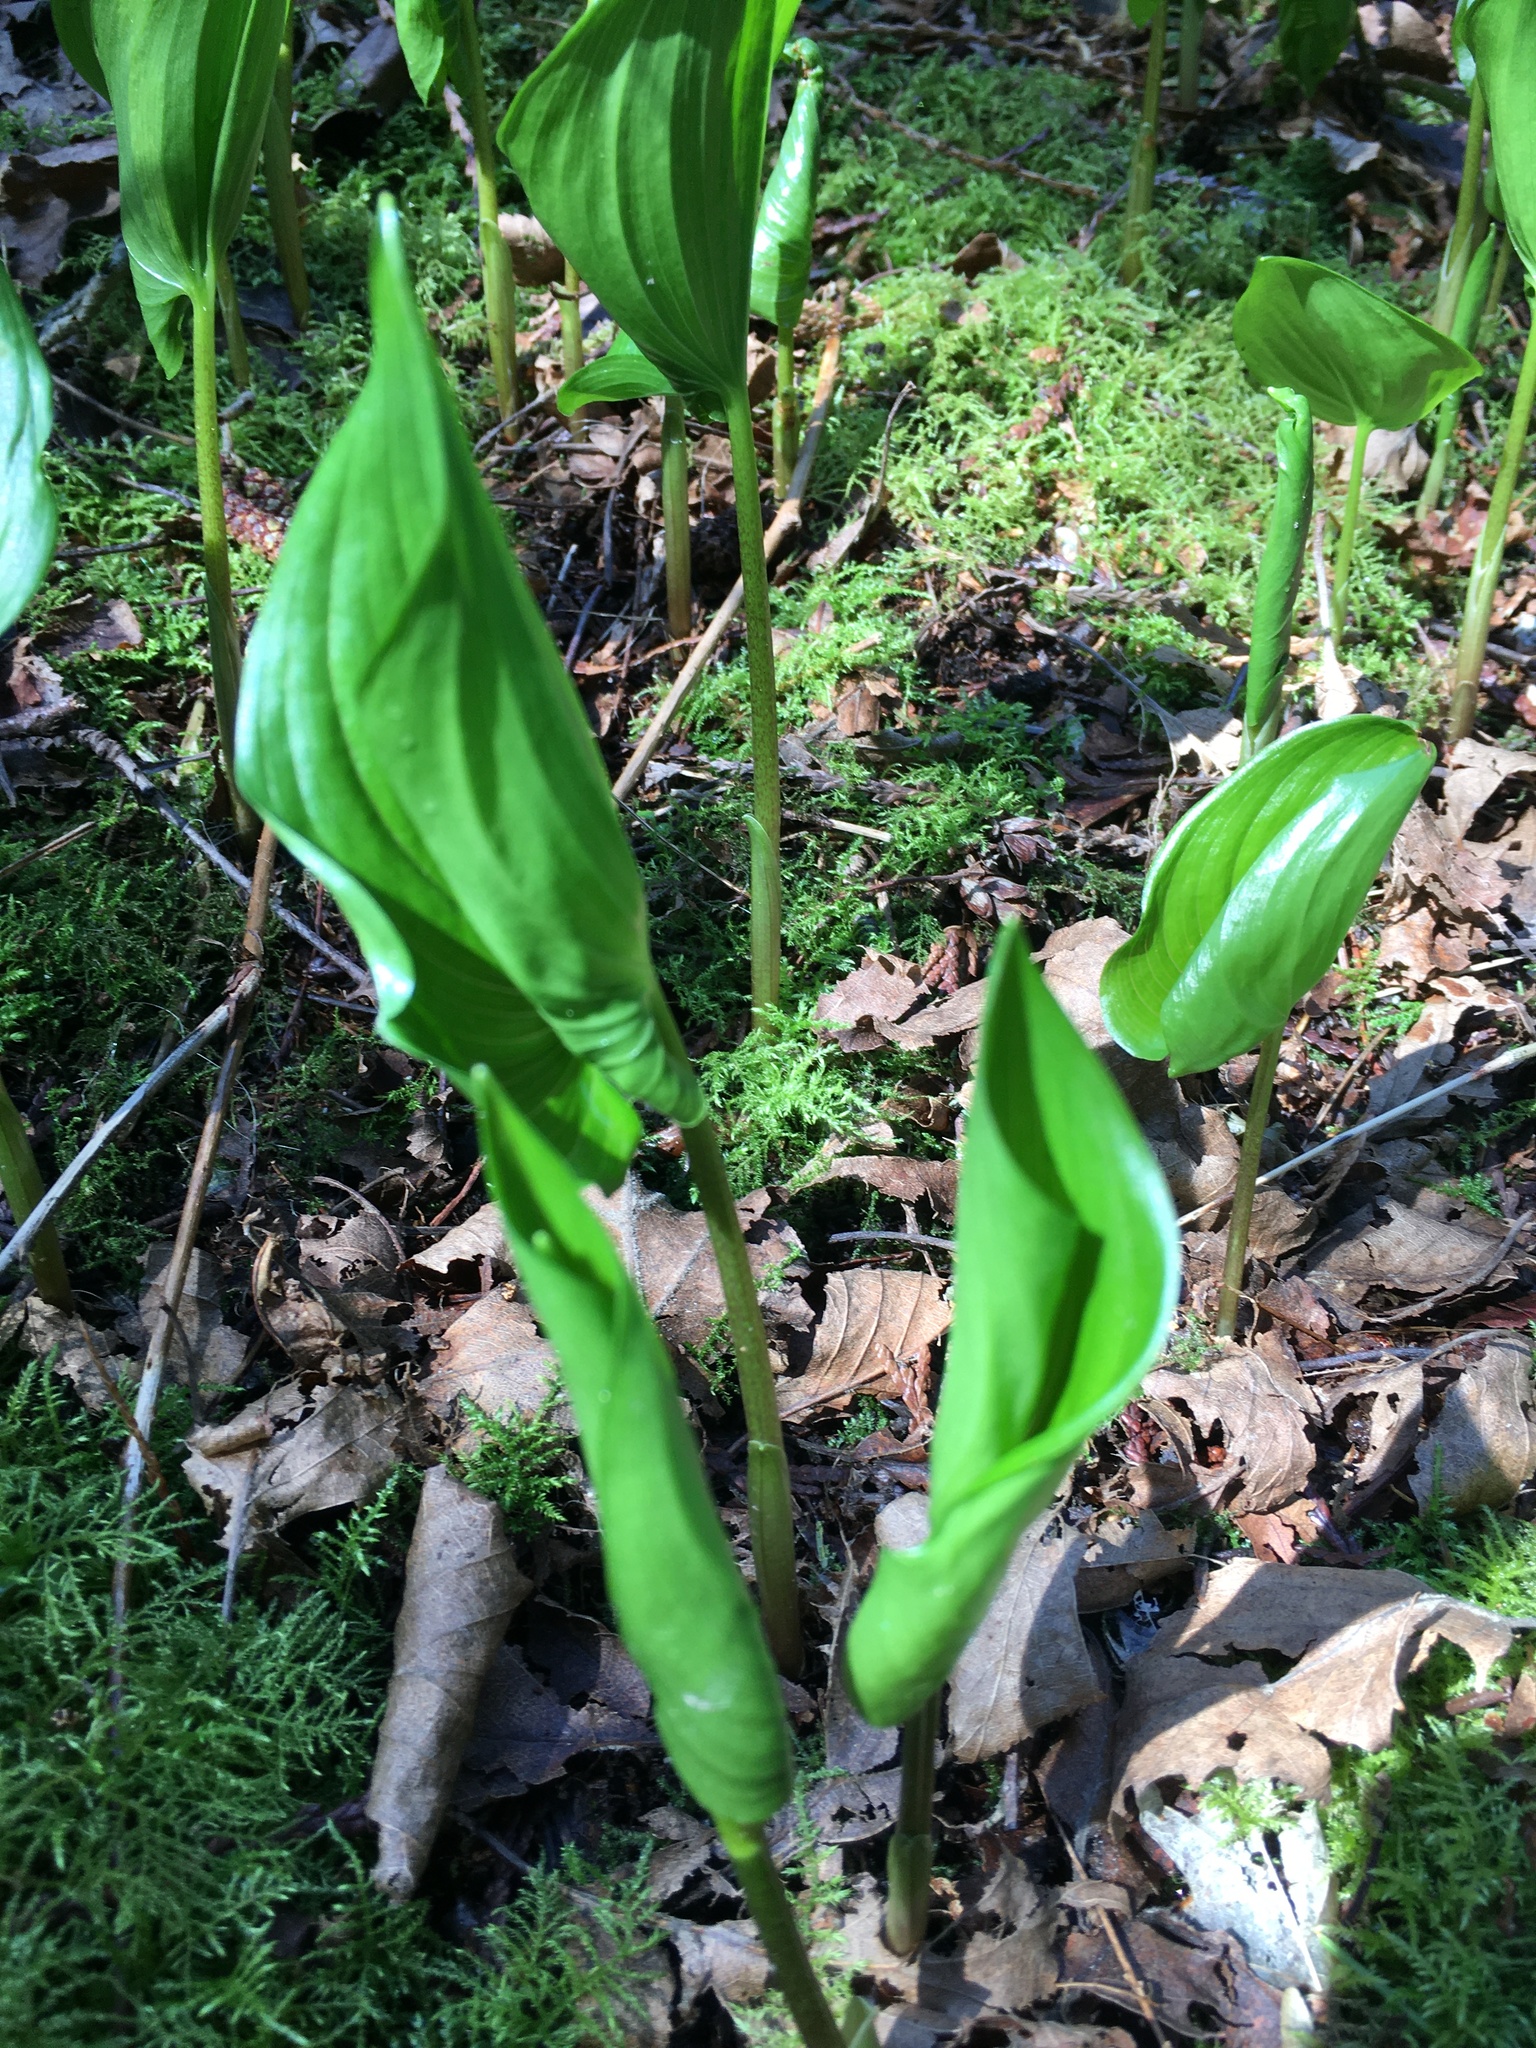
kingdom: Plantae
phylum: Tracheophyta
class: Liliopsida
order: Asparagales
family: Asparagaceae
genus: Maianthemum
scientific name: Maianthemum dilatatum
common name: False lily-of-the-valley
